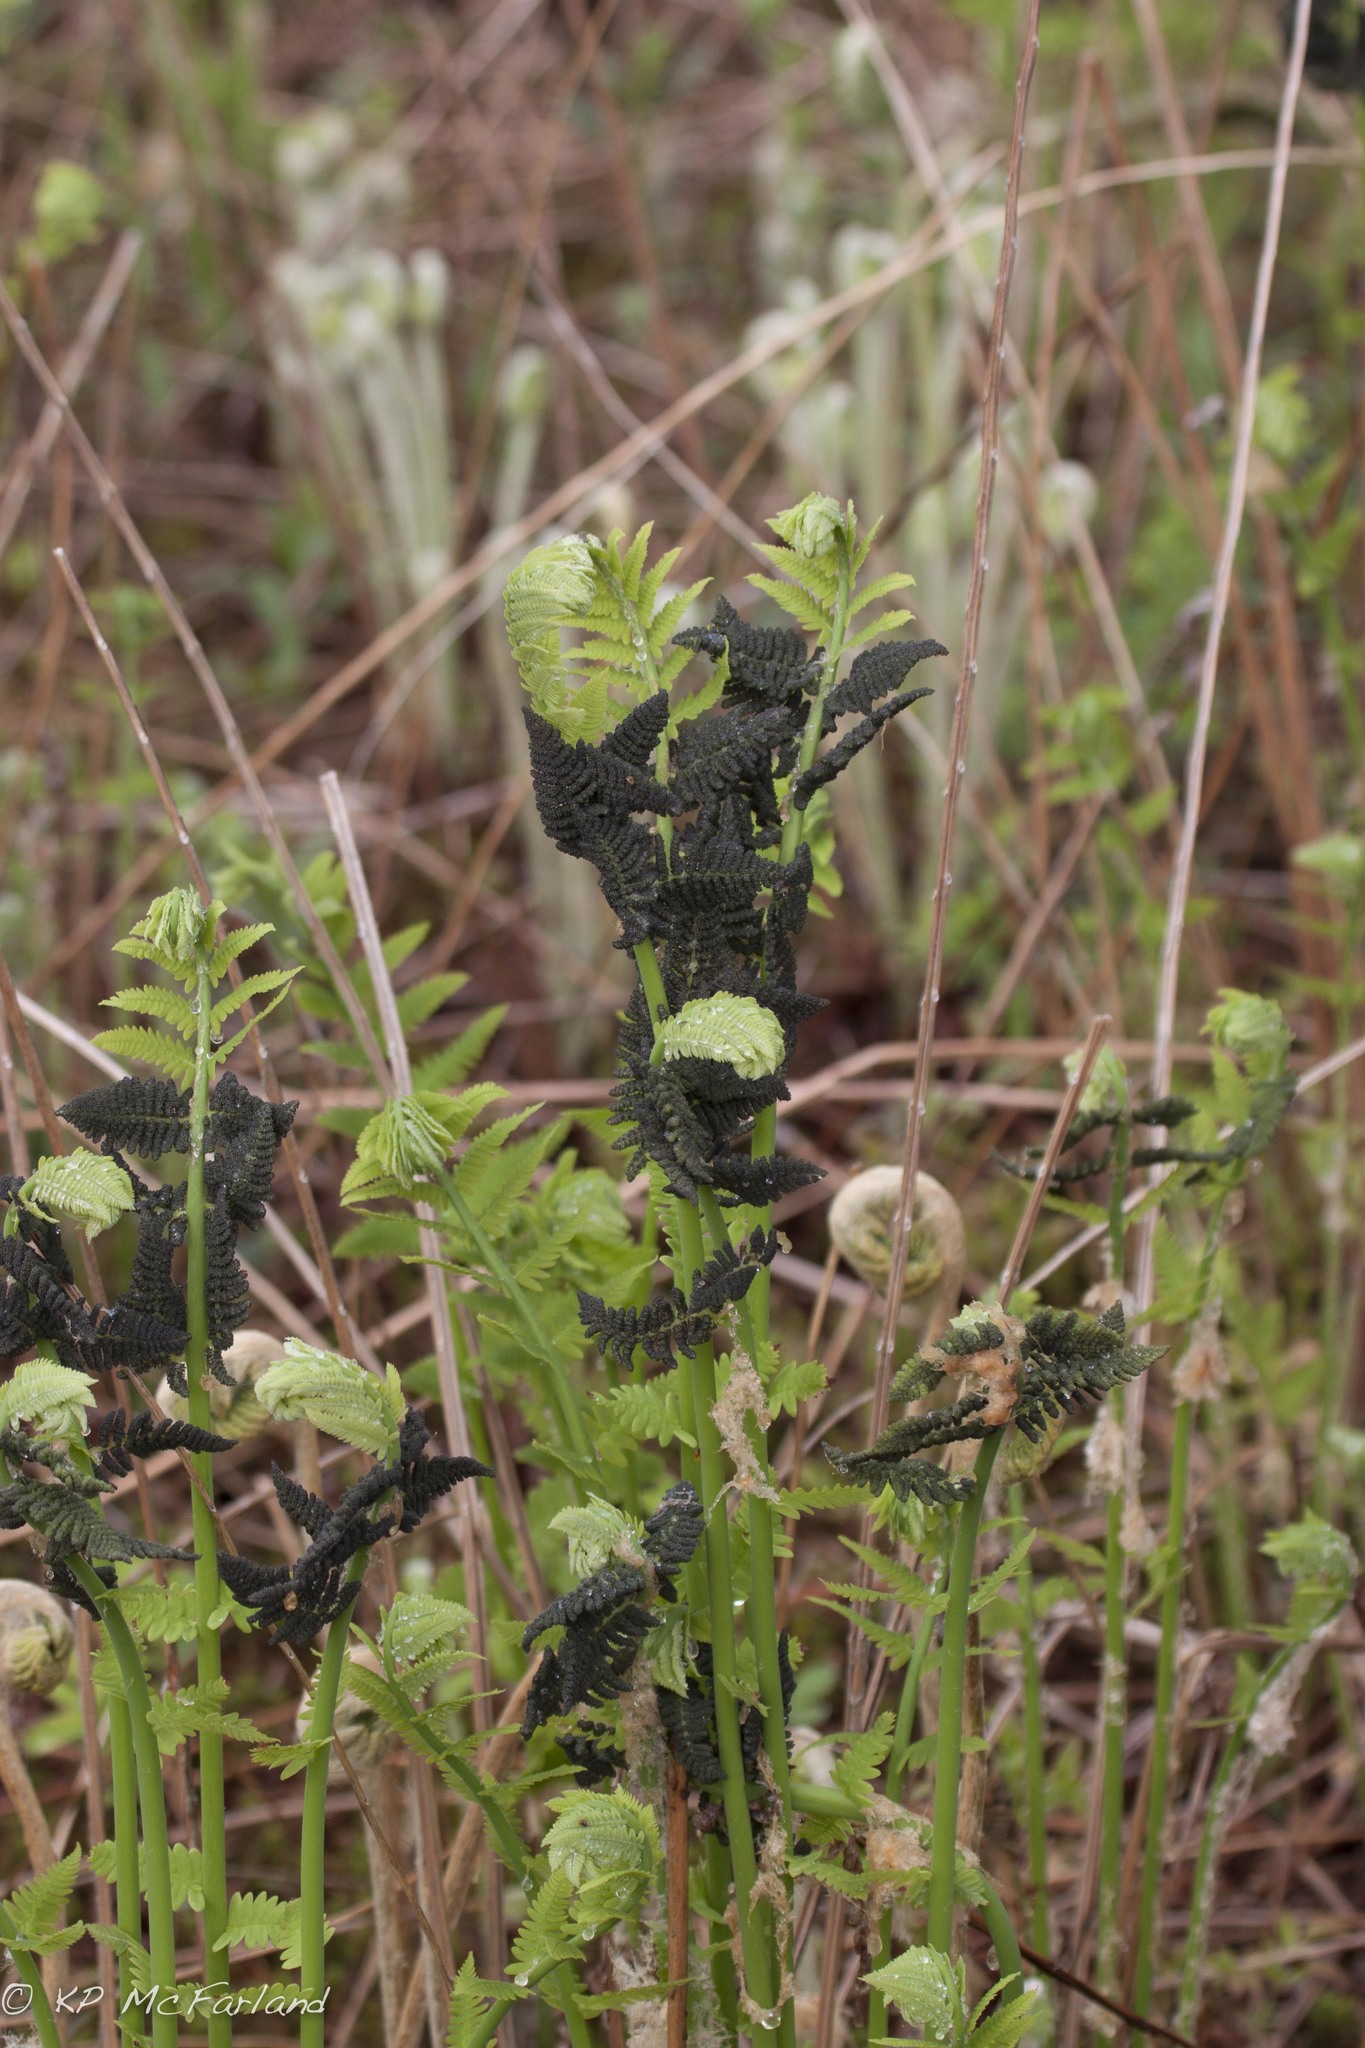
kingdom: Plantae
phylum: Tracheophyta
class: Polypodiopsida
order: Osmundales
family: Osmundaceae
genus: Claytosmunda
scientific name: Claytosmunda claytoniana
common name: Clayton's fern
